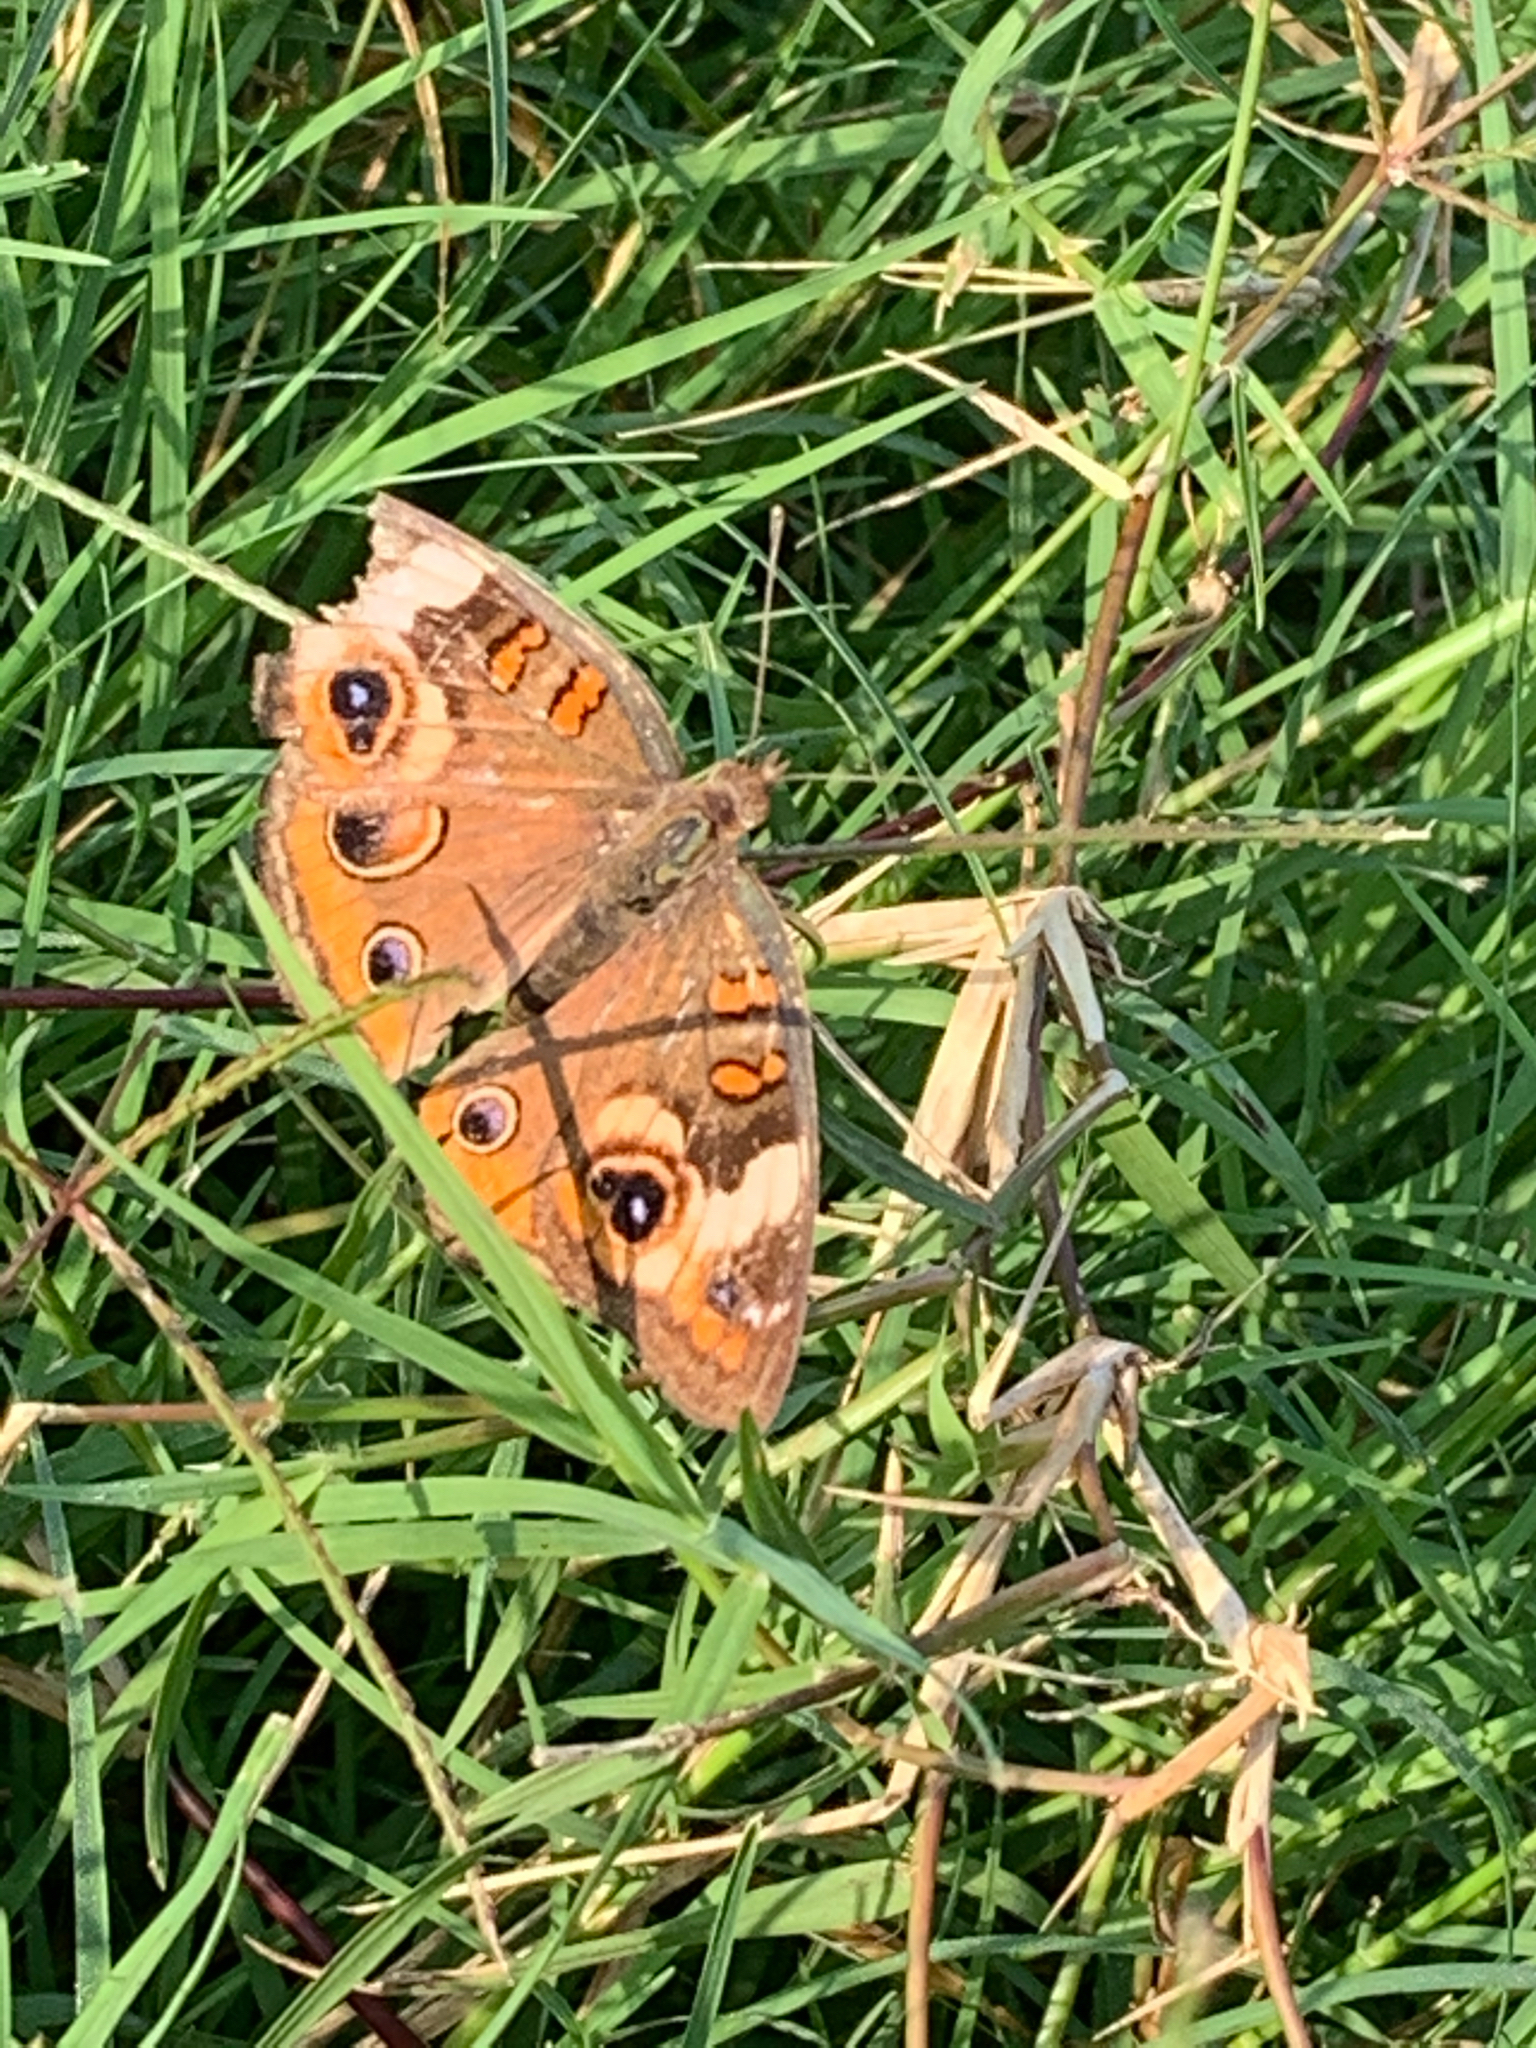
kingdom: Animalia
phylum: Arthropoda
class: Insecta
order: Lepidoptera
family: Nymphalidae
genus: Junonia
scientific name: Junonia coenia
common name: Common buckeye
